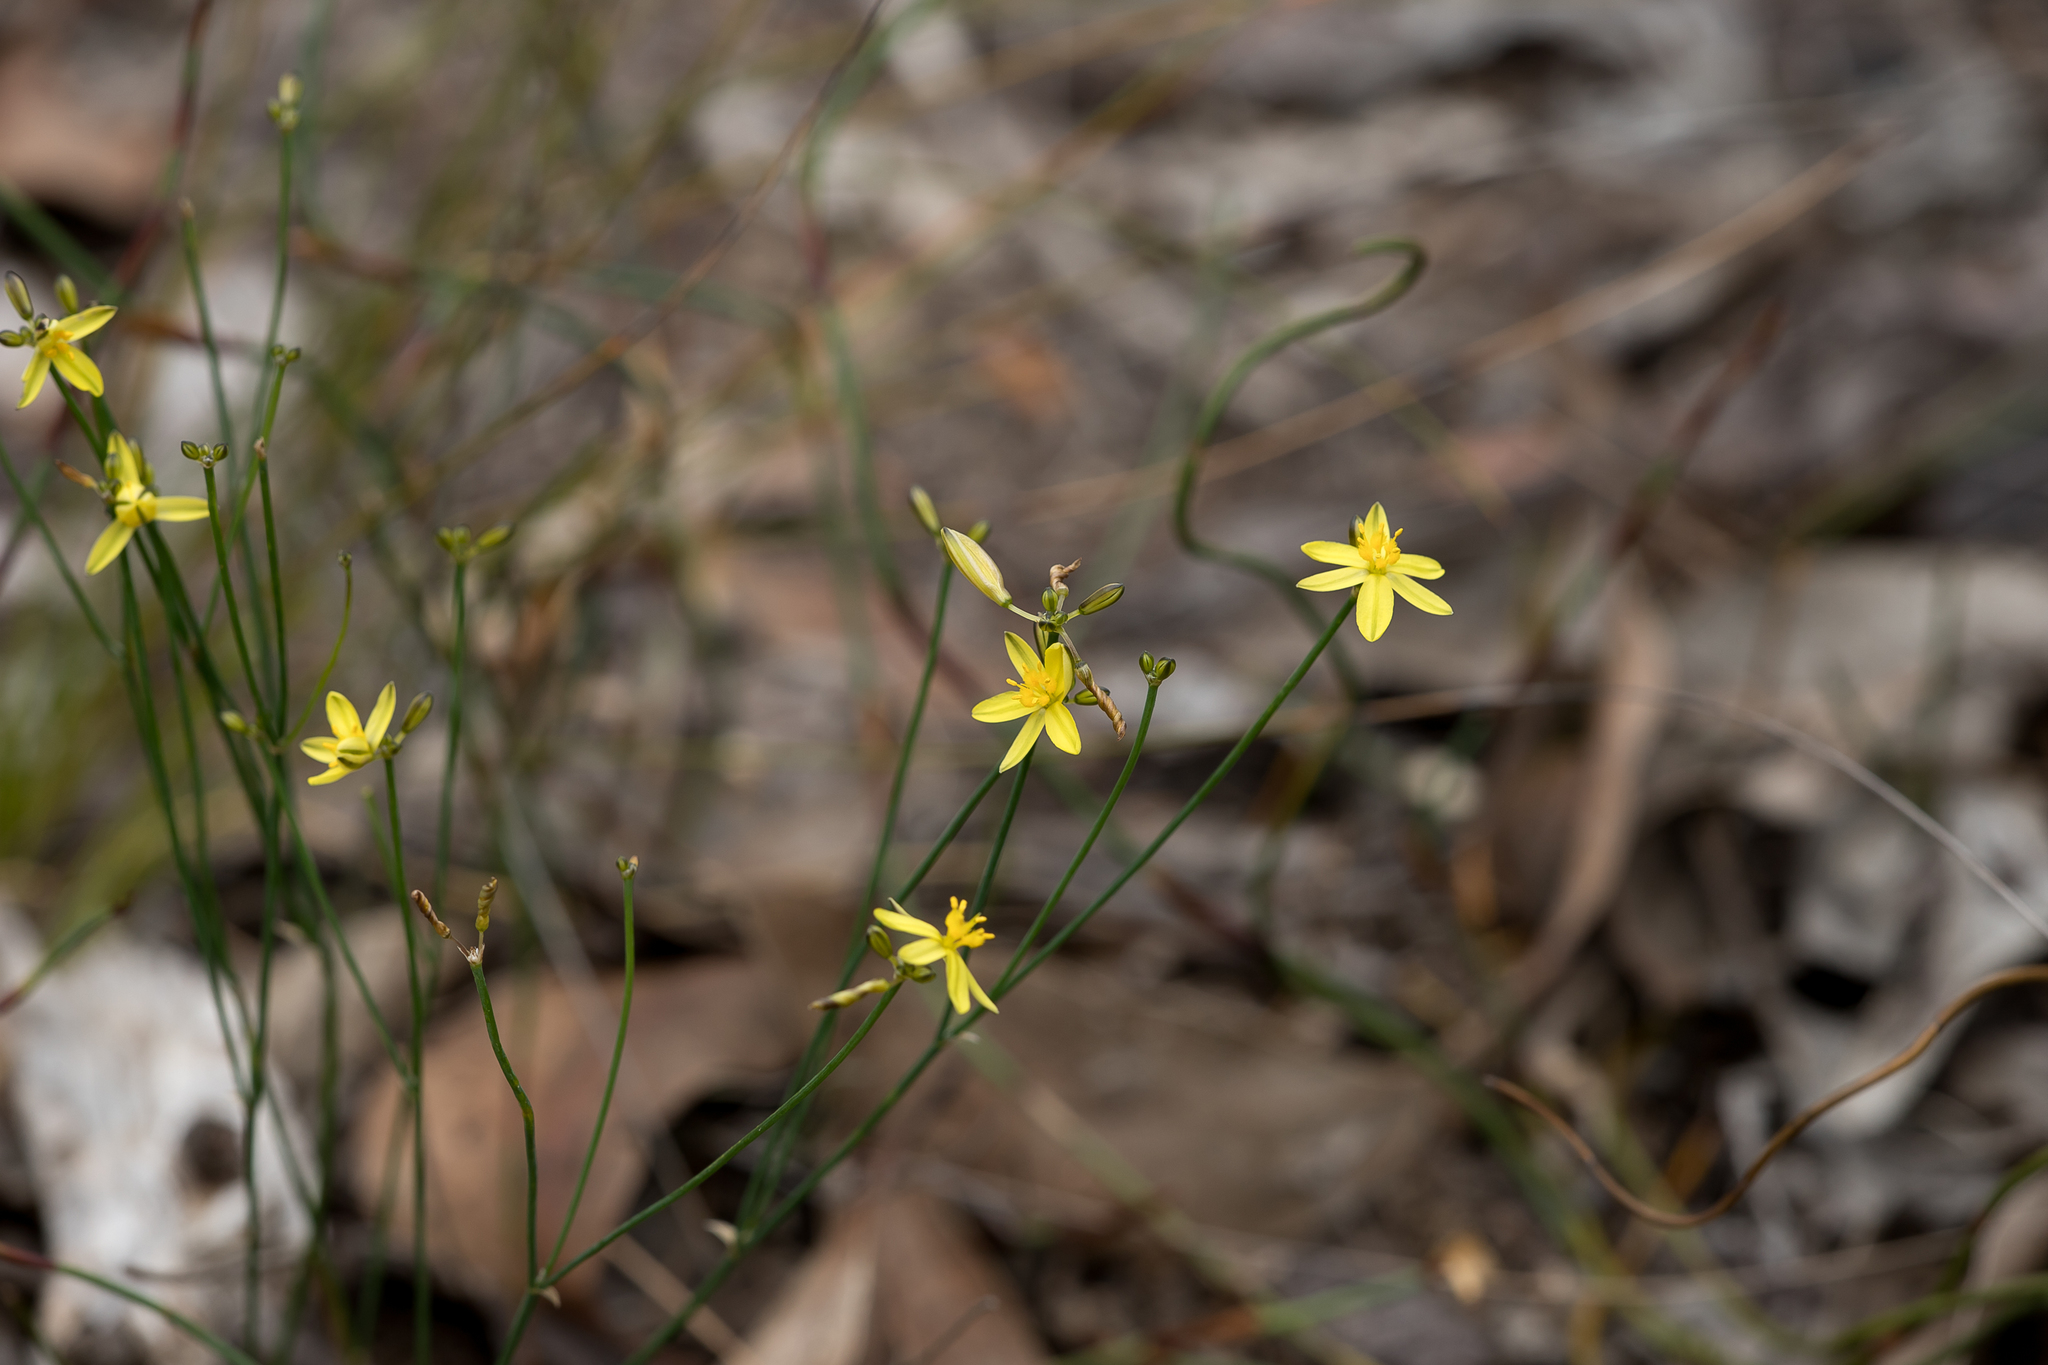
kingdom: Plantae
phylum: Tracheophyta
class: Liliopsida
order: Asparagales
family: Asphodelaceae
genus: Tricoryne
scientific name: Tricoryne tenella
